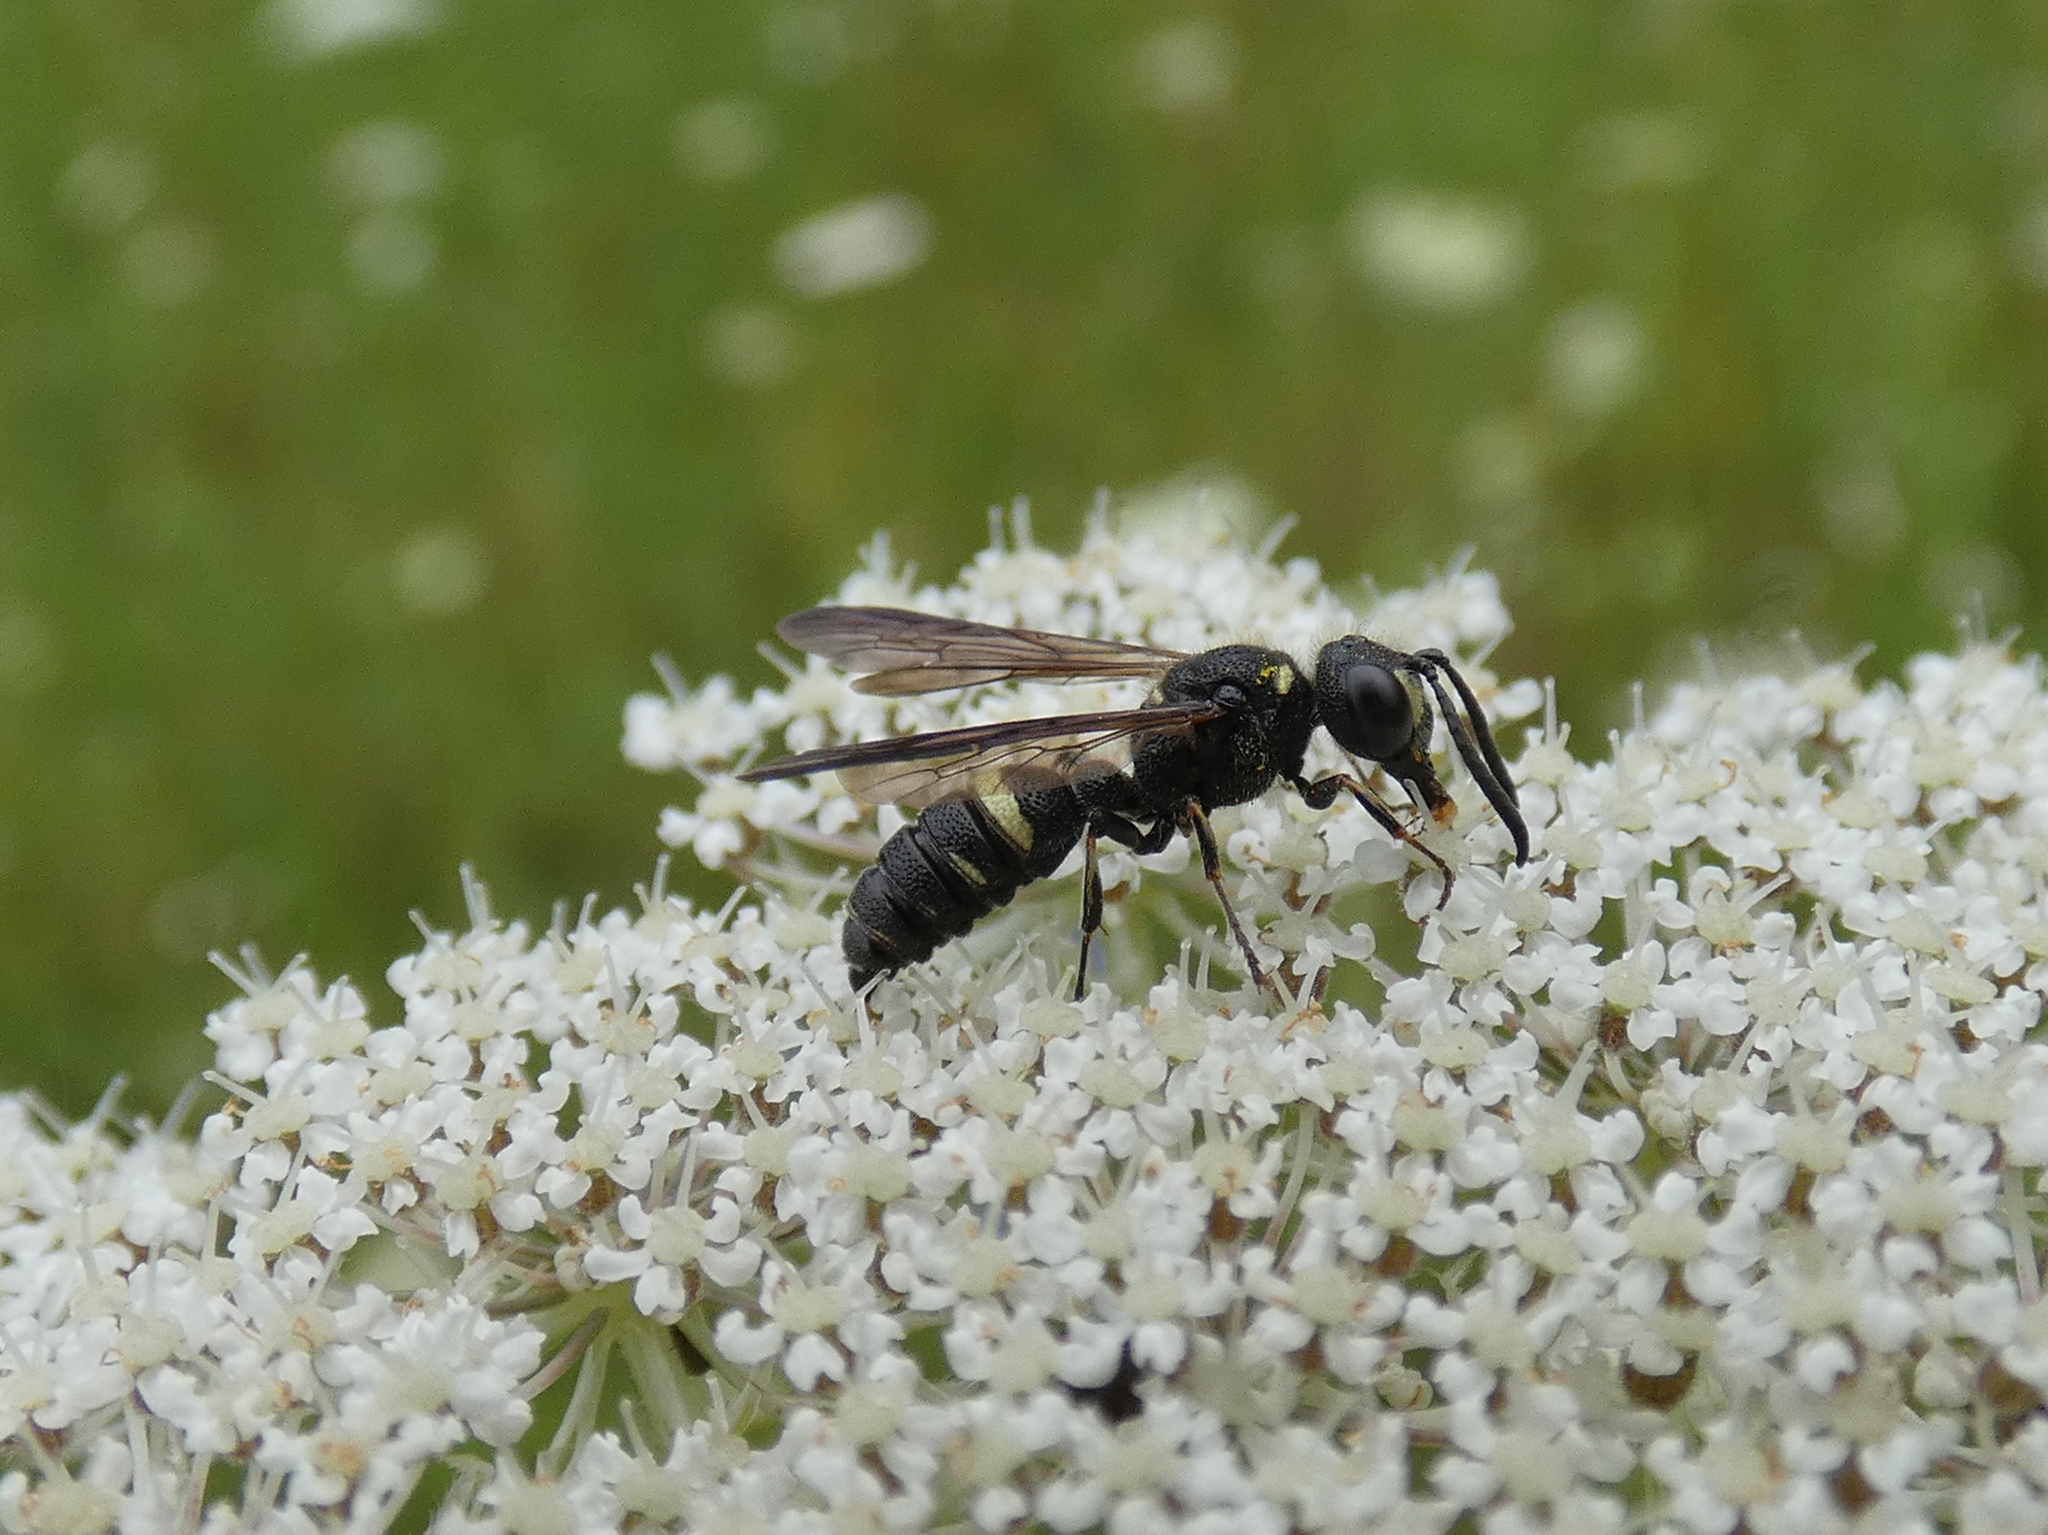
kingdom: Animalia
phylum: Arthropoda
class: Insecta
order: Hymenoptera
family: Crabronidae
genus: Cerceris
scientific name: Cerceris fumipennis
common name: Smokey-winged beetle bandit wasp
